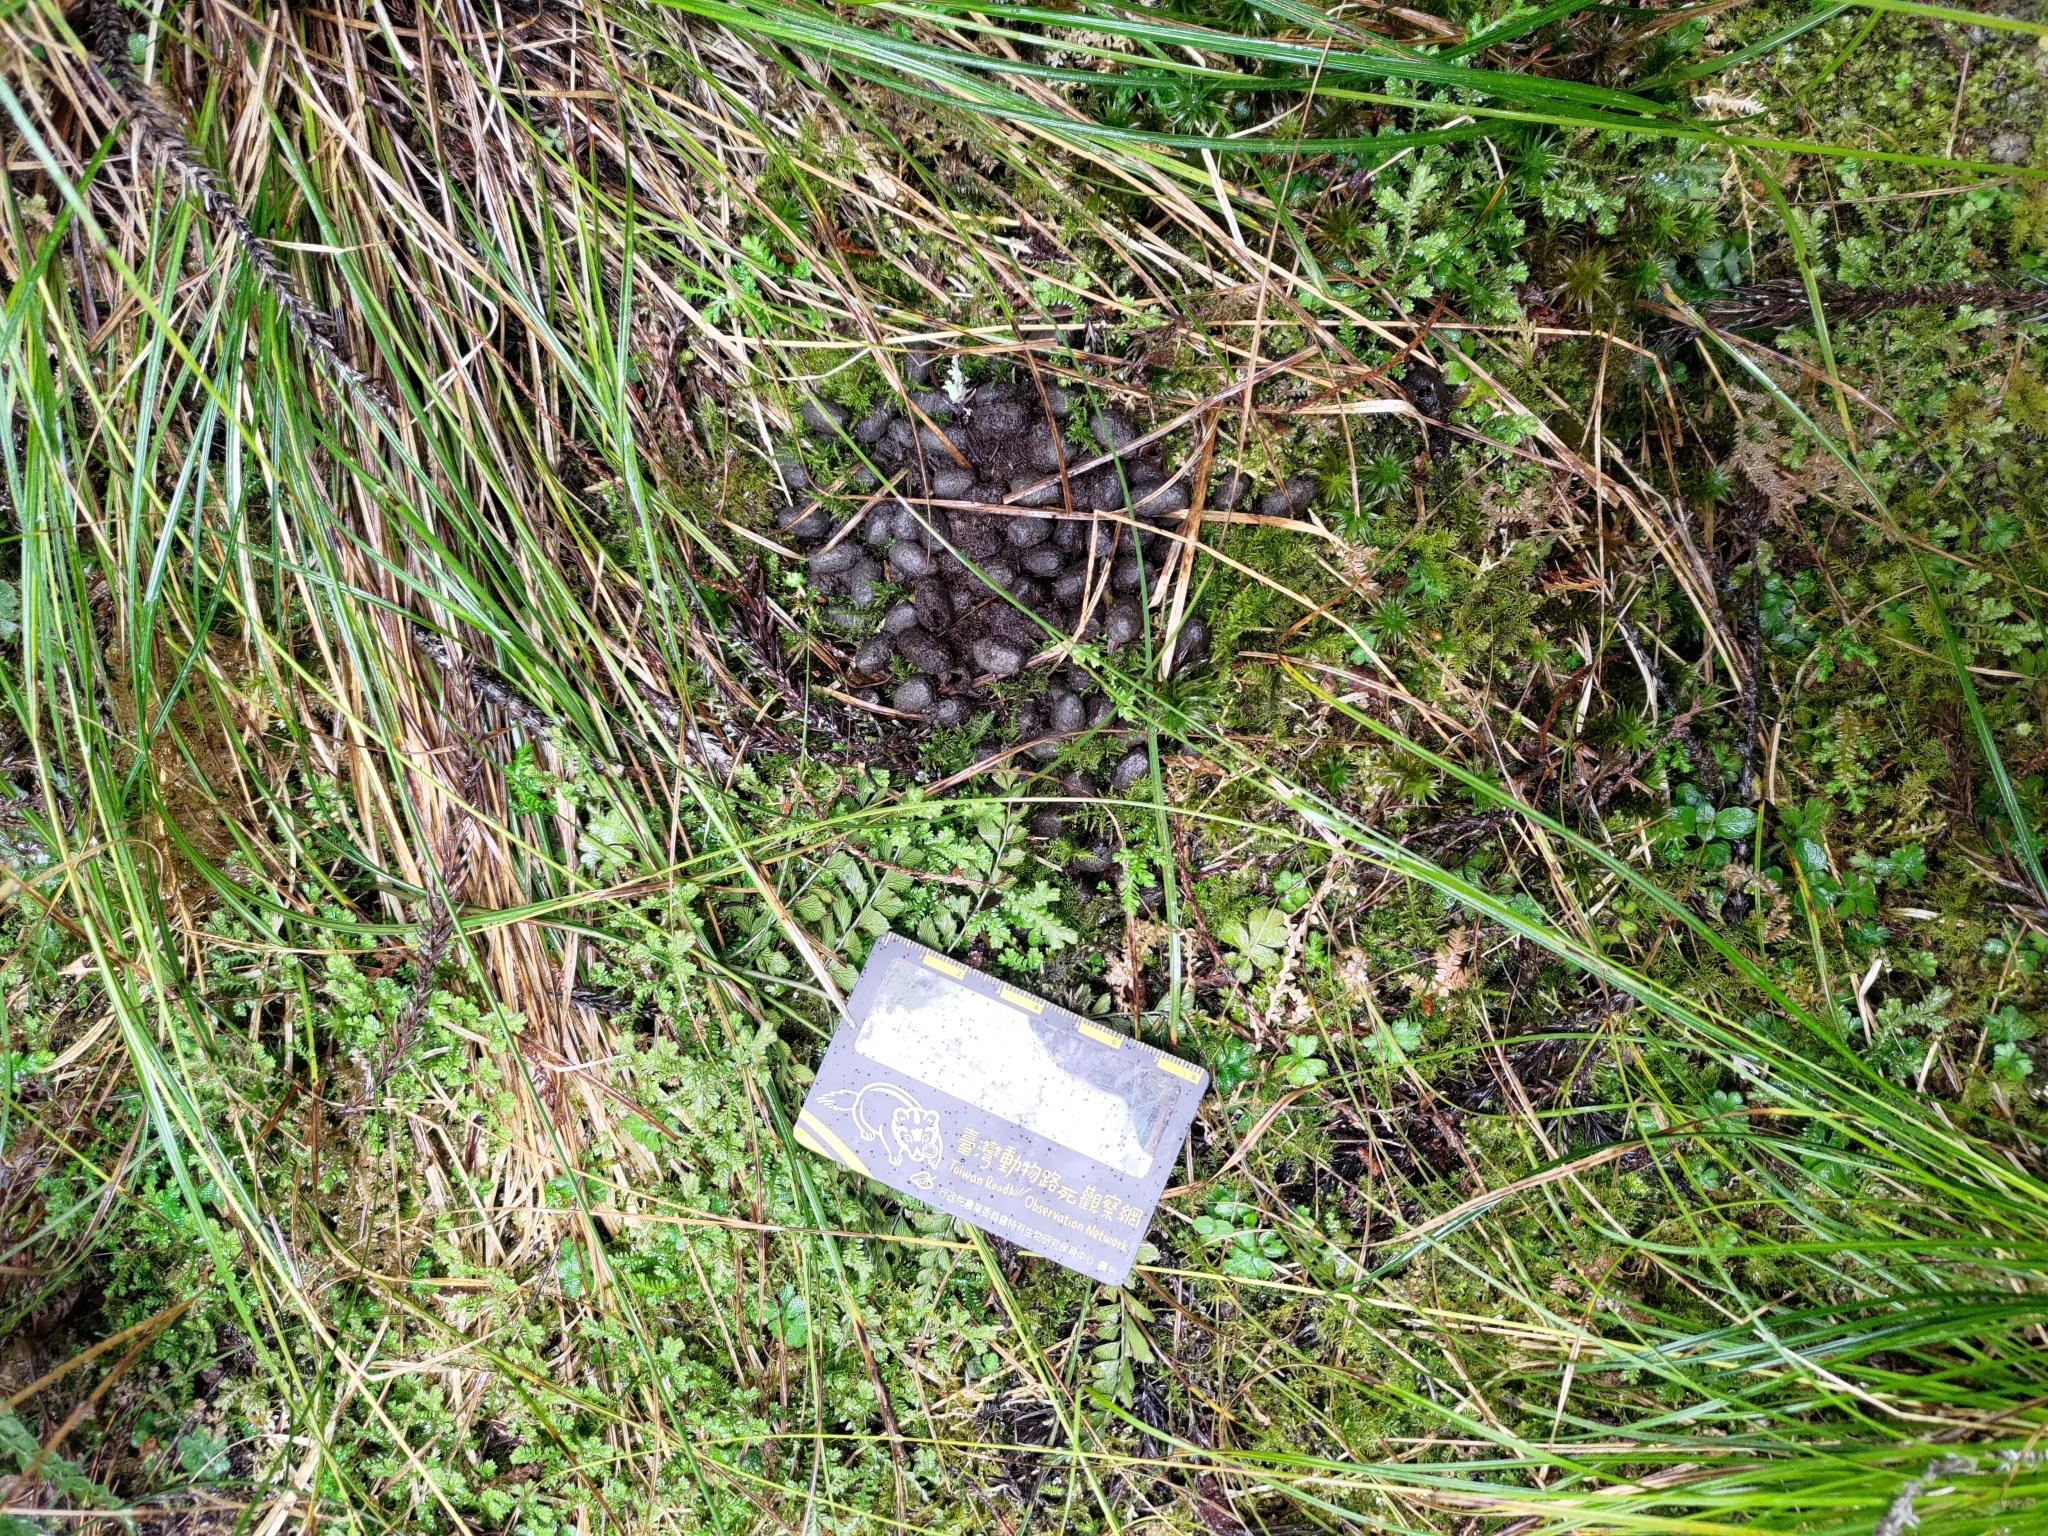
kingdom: Animalia
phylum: Chordata
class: Mammalia
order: Artiodactyla
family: Bovidae
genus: Capricornis
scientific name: Capricornis swinhoei
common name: Formosan serow
